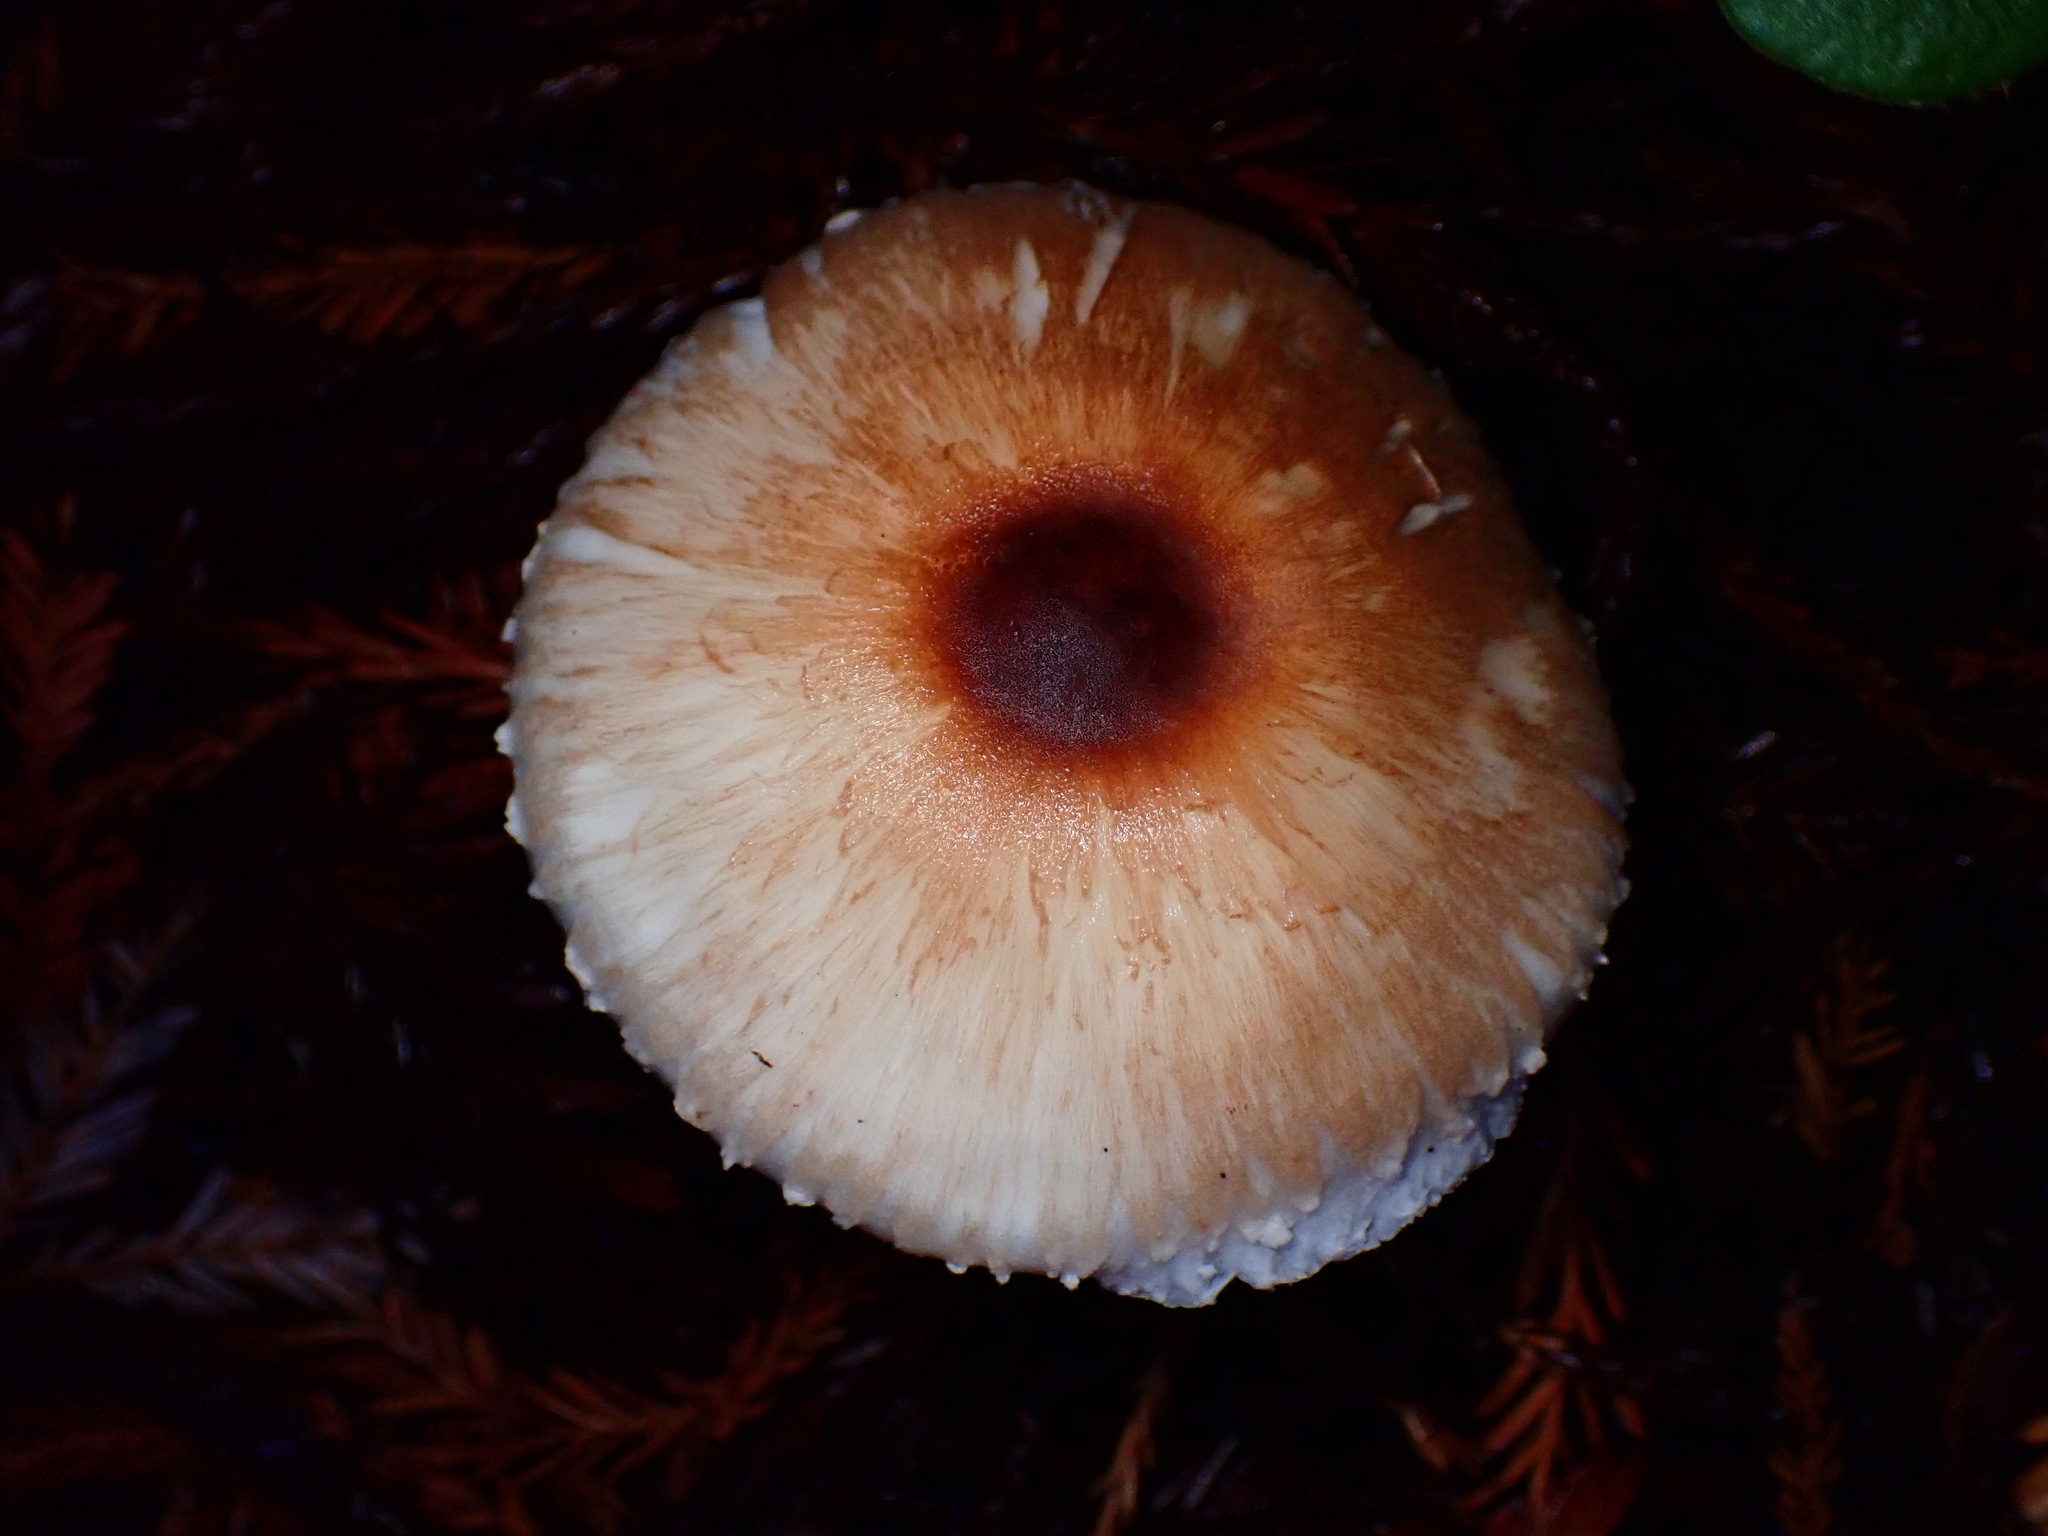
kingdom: Fungi
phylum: Basidiomycota
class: Agaricomycetes
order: Agaricales
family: Agaricaceae
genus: Leucoagaricus
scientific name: Leucoagaricus rubrotinctus
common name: Ruby dapperling
